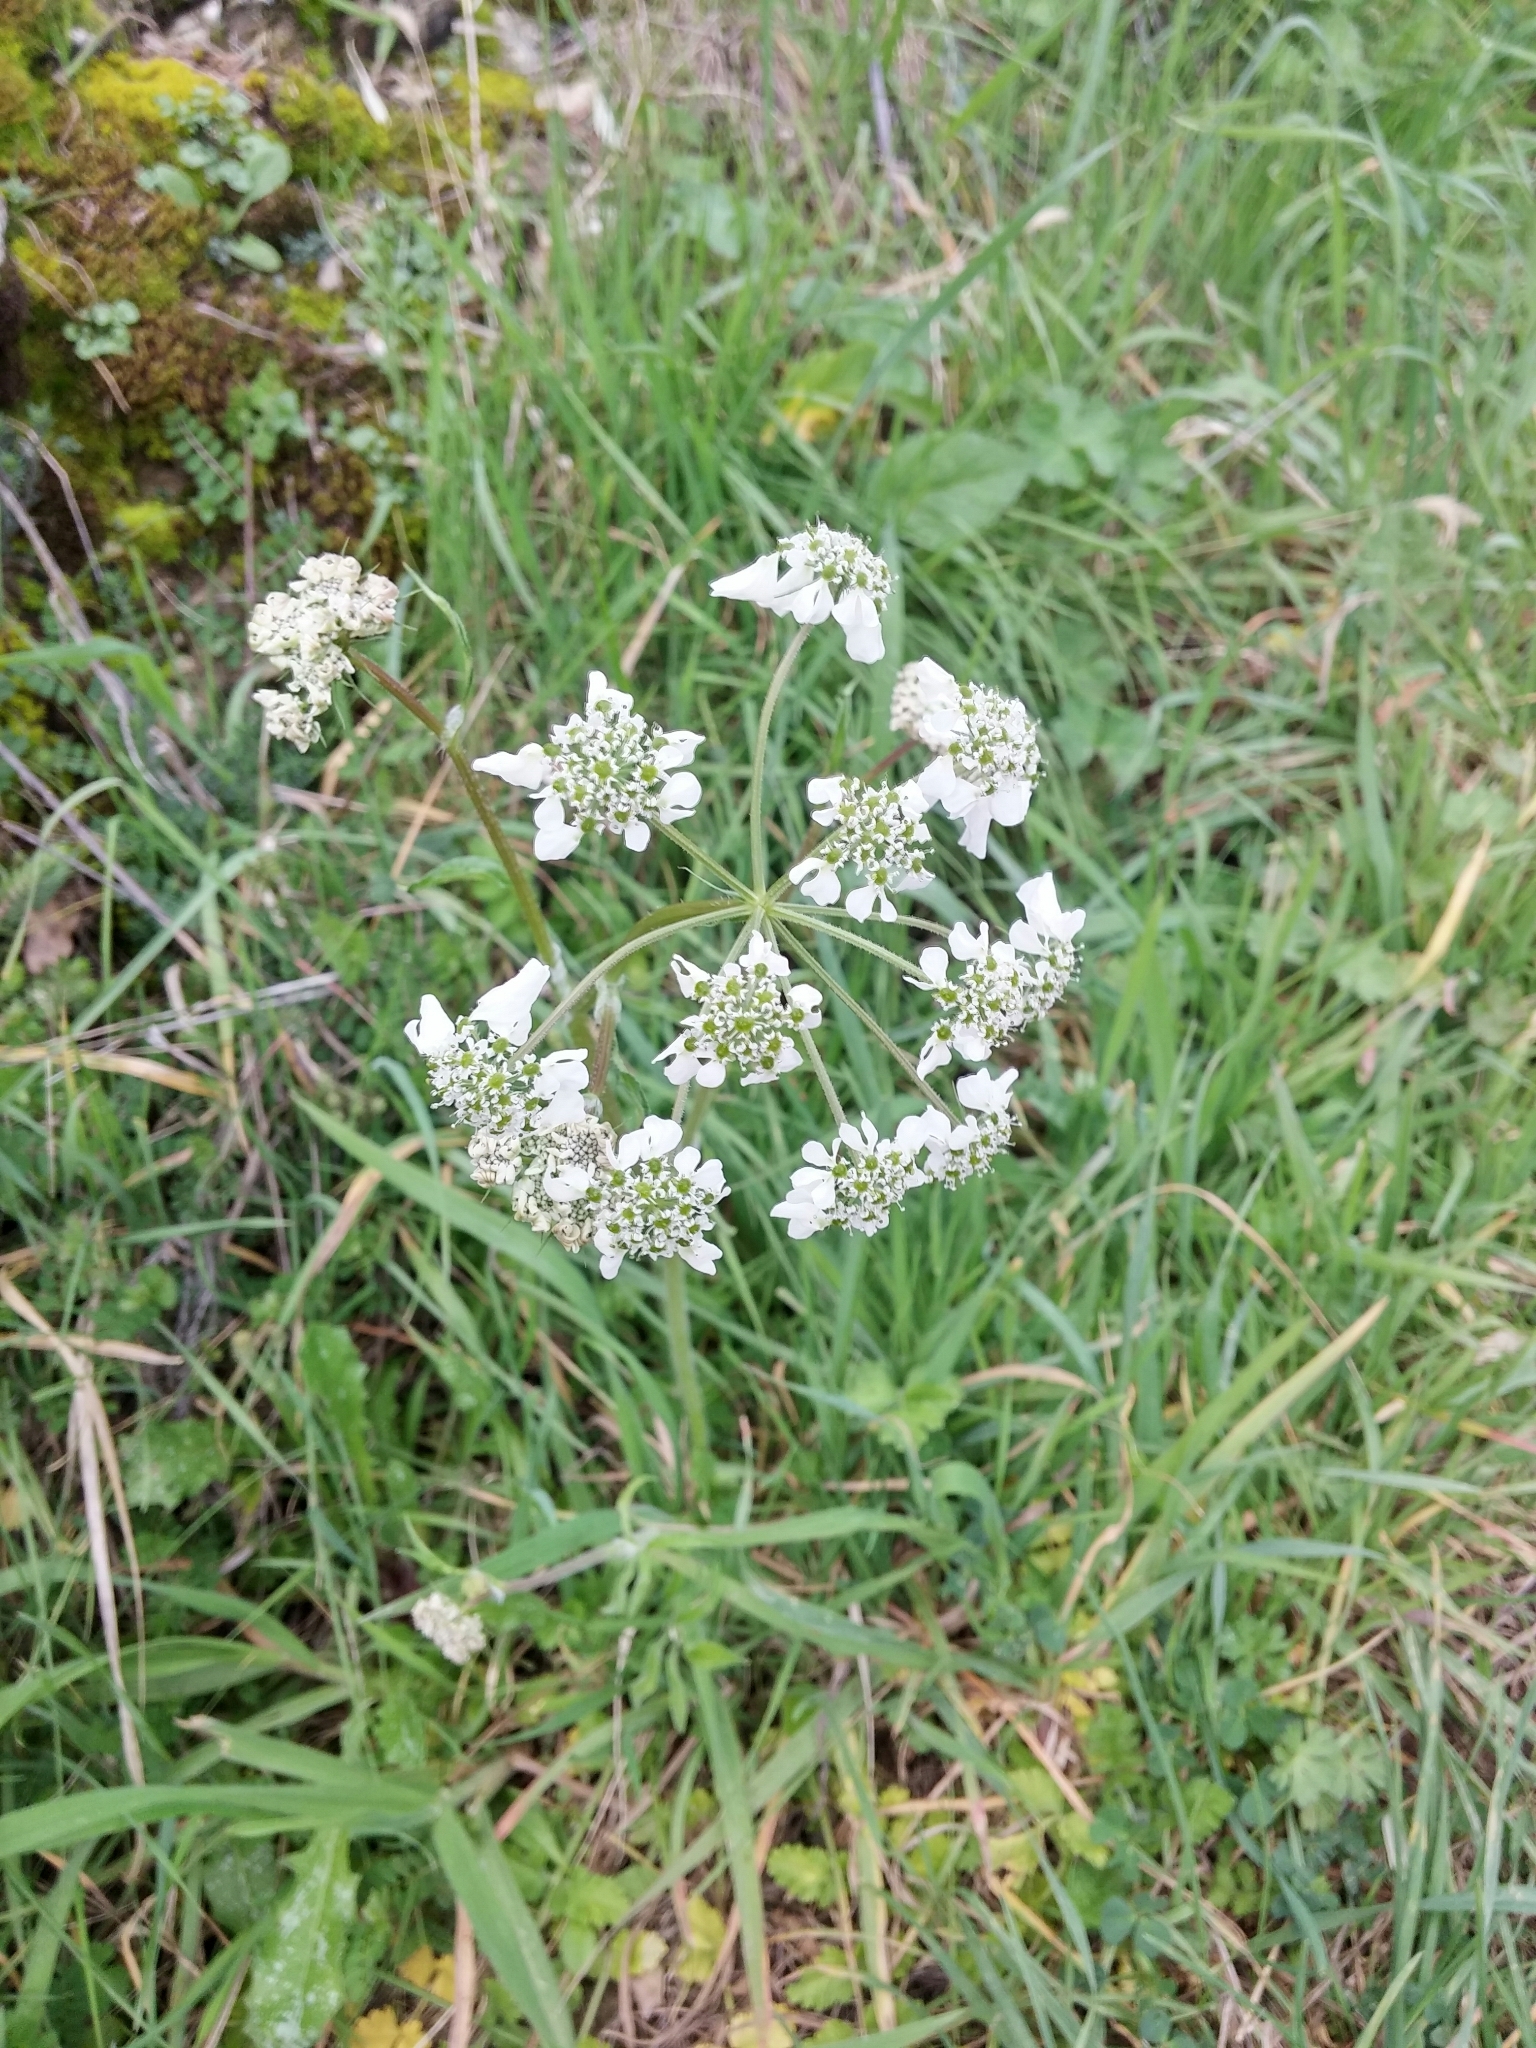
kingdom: Plantae
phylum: Tracheophyta
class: Magnoliopsida
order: Apiales
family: Apiaceae
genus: Tordylium
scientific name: Tordylium apulum
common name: Mediterranean hartwort
